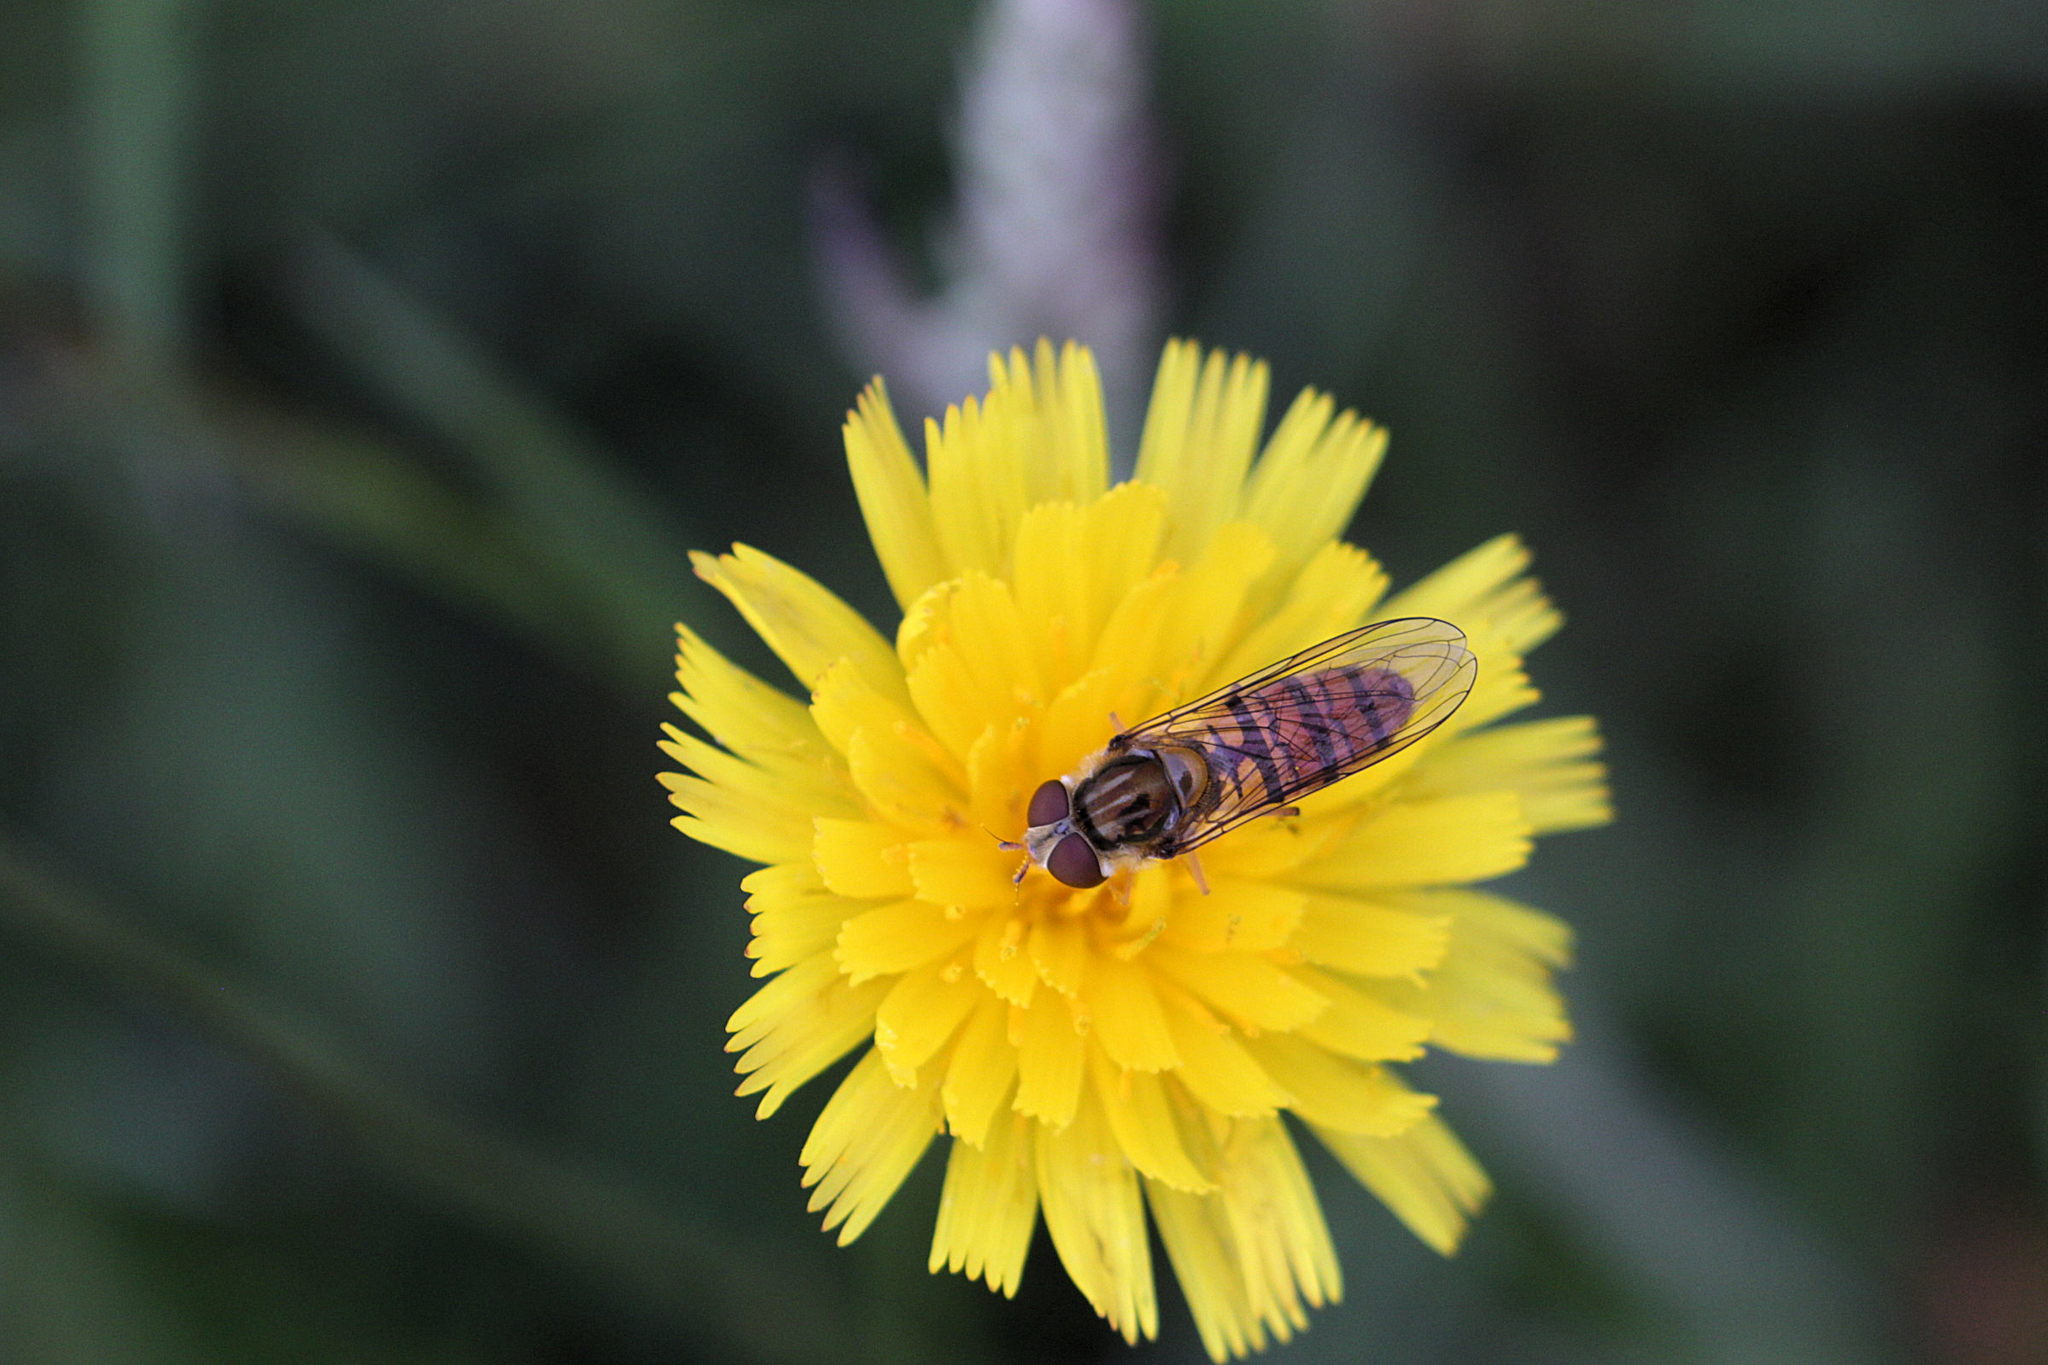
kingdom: Animalia
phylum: Arthropoda
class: Insecta
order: Diptera
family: Syrphidae
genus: Episyrphus
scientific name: Episyrphus balteatus
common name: Marmalade hoverfly
